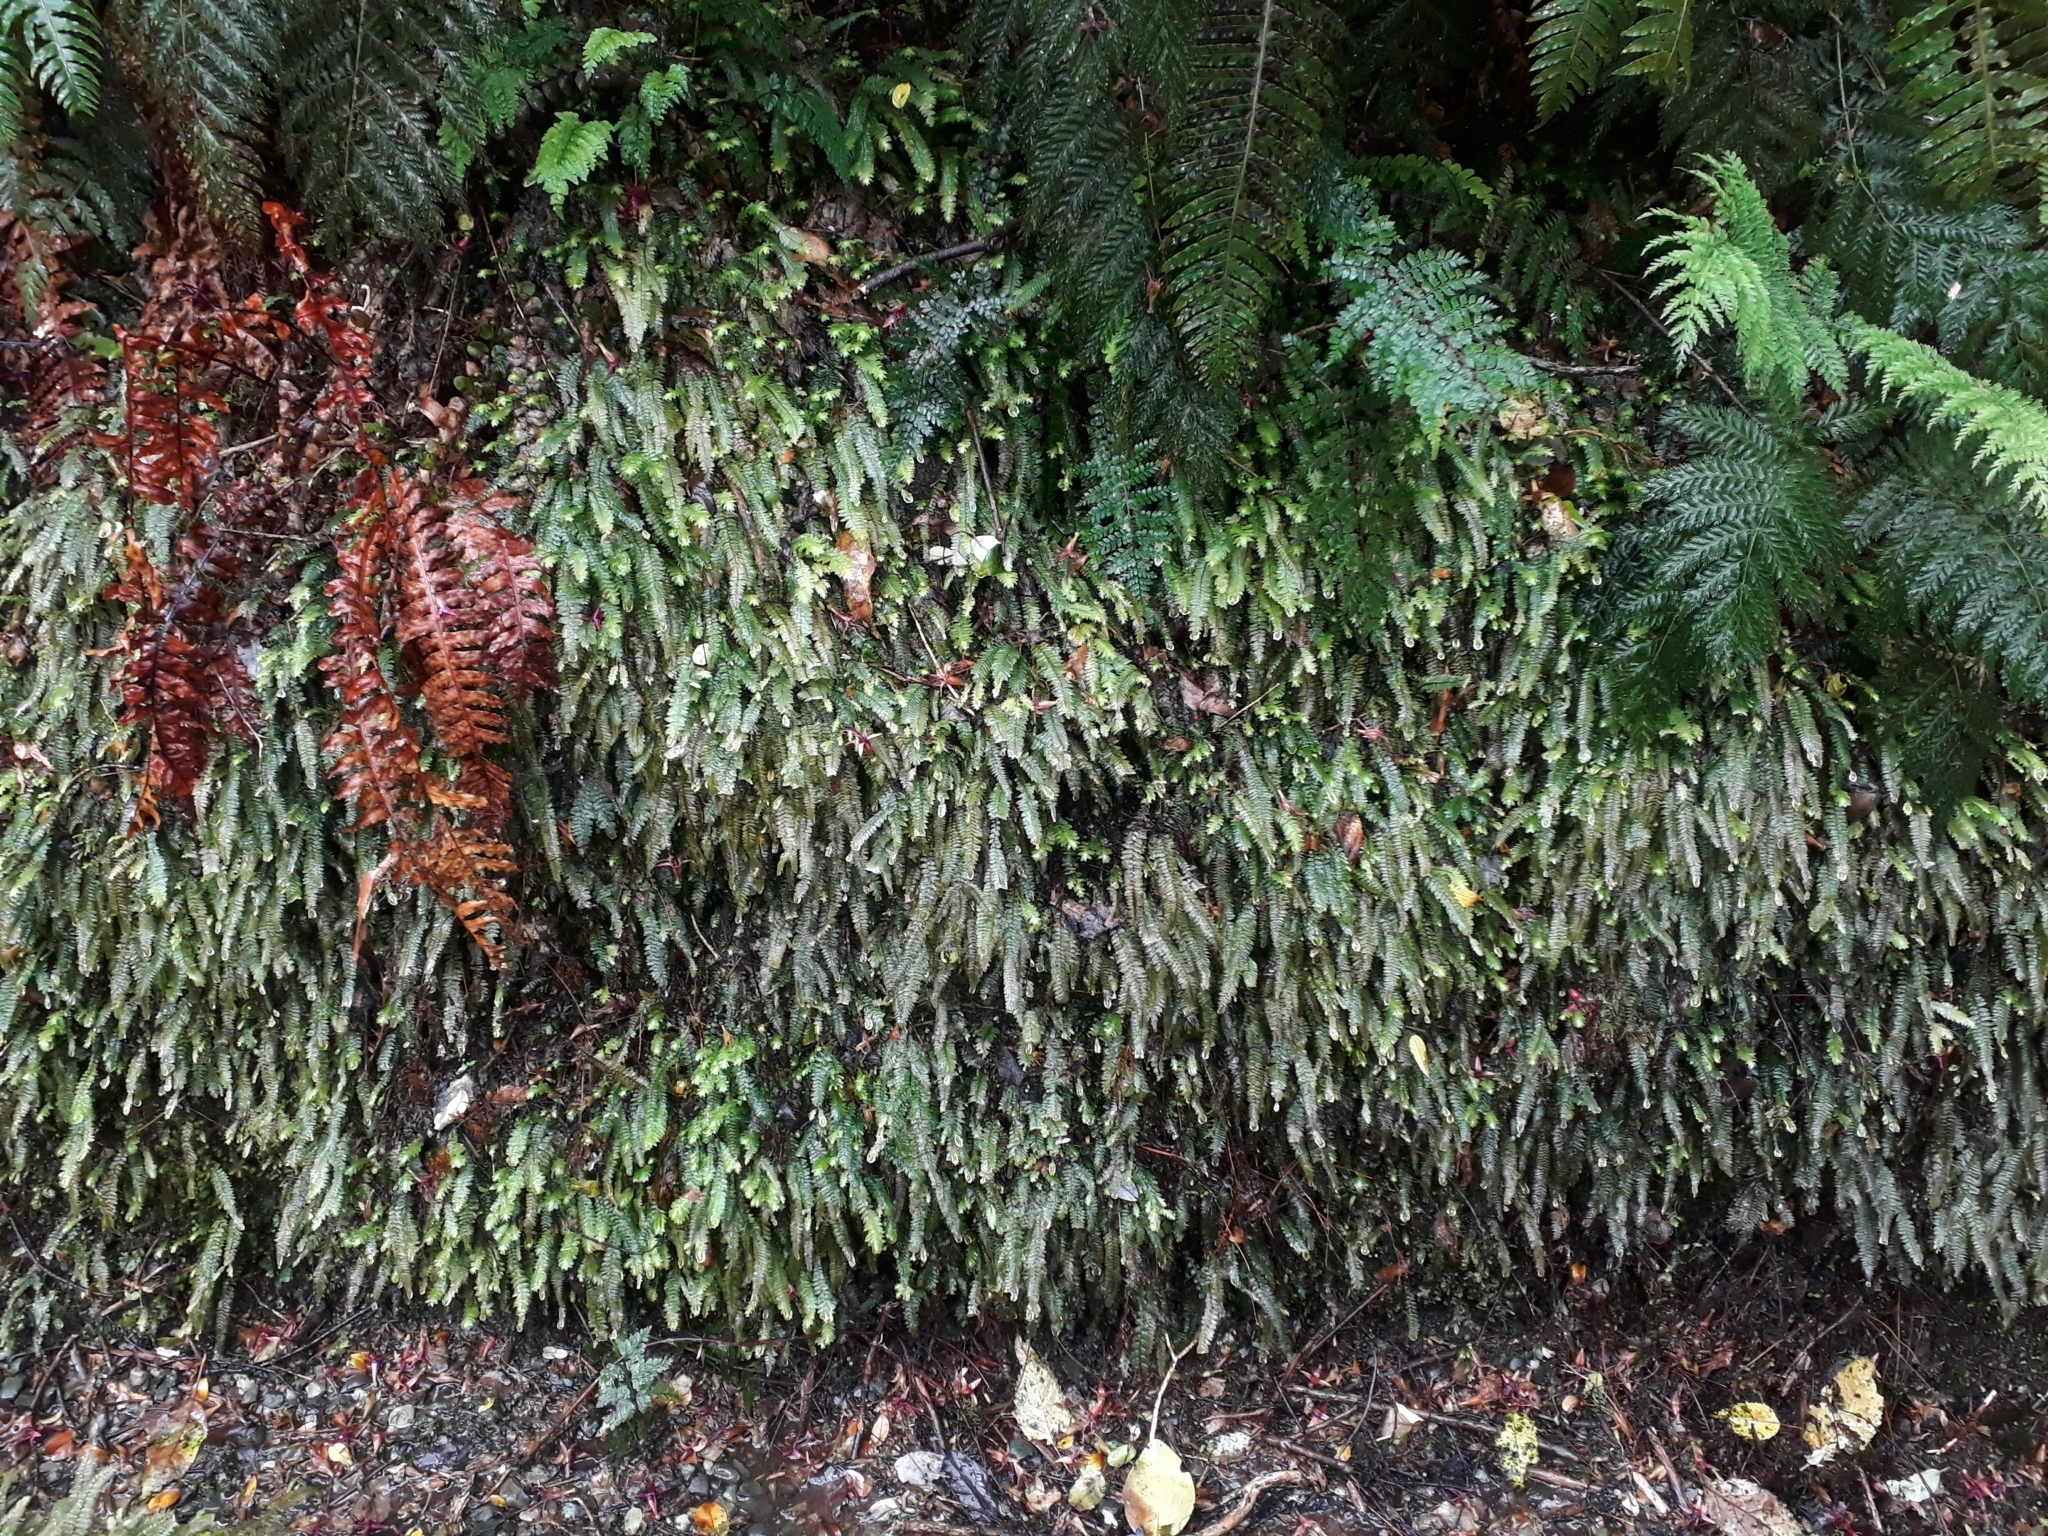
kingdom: Plantae
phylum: Bryophyta
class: Bryopsida
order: Hypopterygiales
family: Hypopterygiaceae
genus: Cyathophorum
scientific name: Cyathophorum bulbosum
